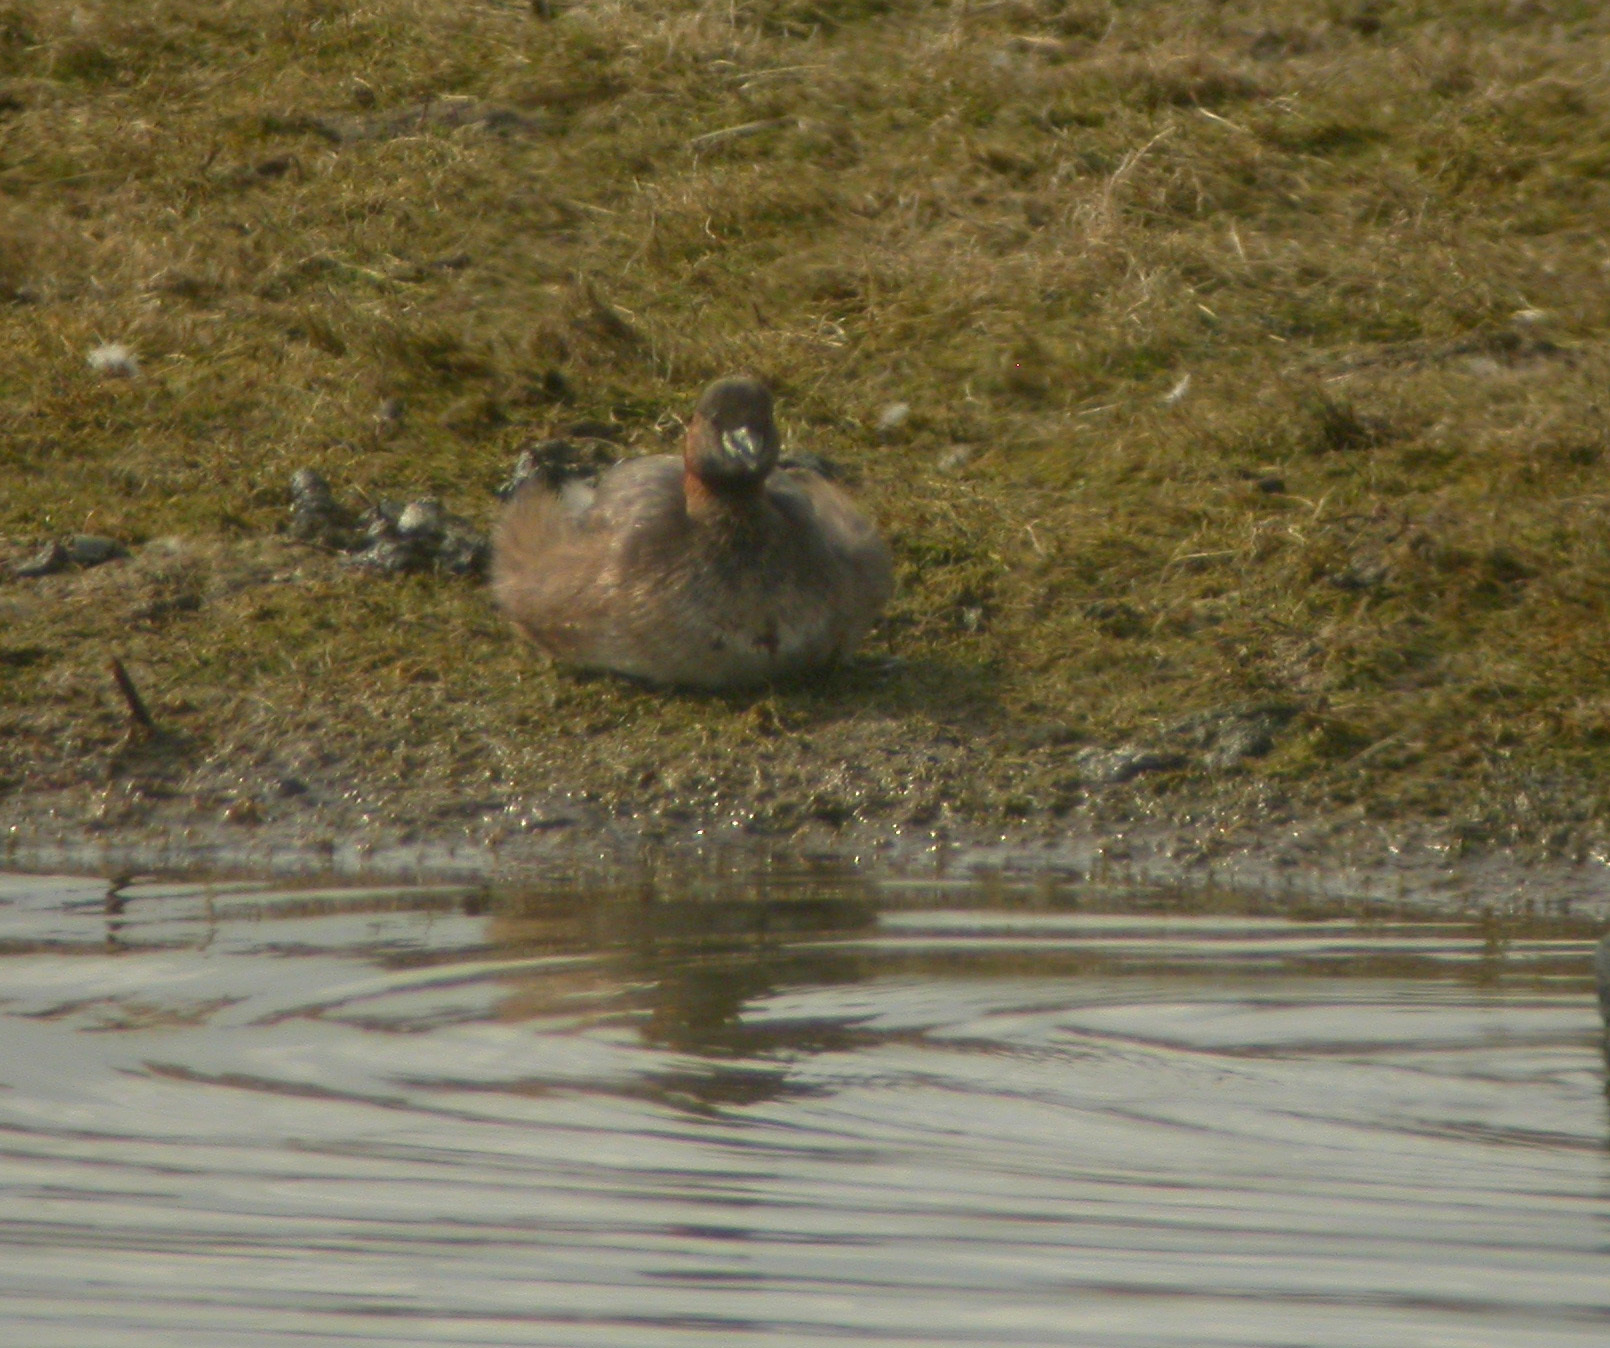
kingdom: Animalia
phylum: Chordata
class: Aves
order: Podicipediformes
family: Podicipedidae
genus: Tachybaptus
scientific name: Tachybaptus ruficollis
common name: Little grebe
